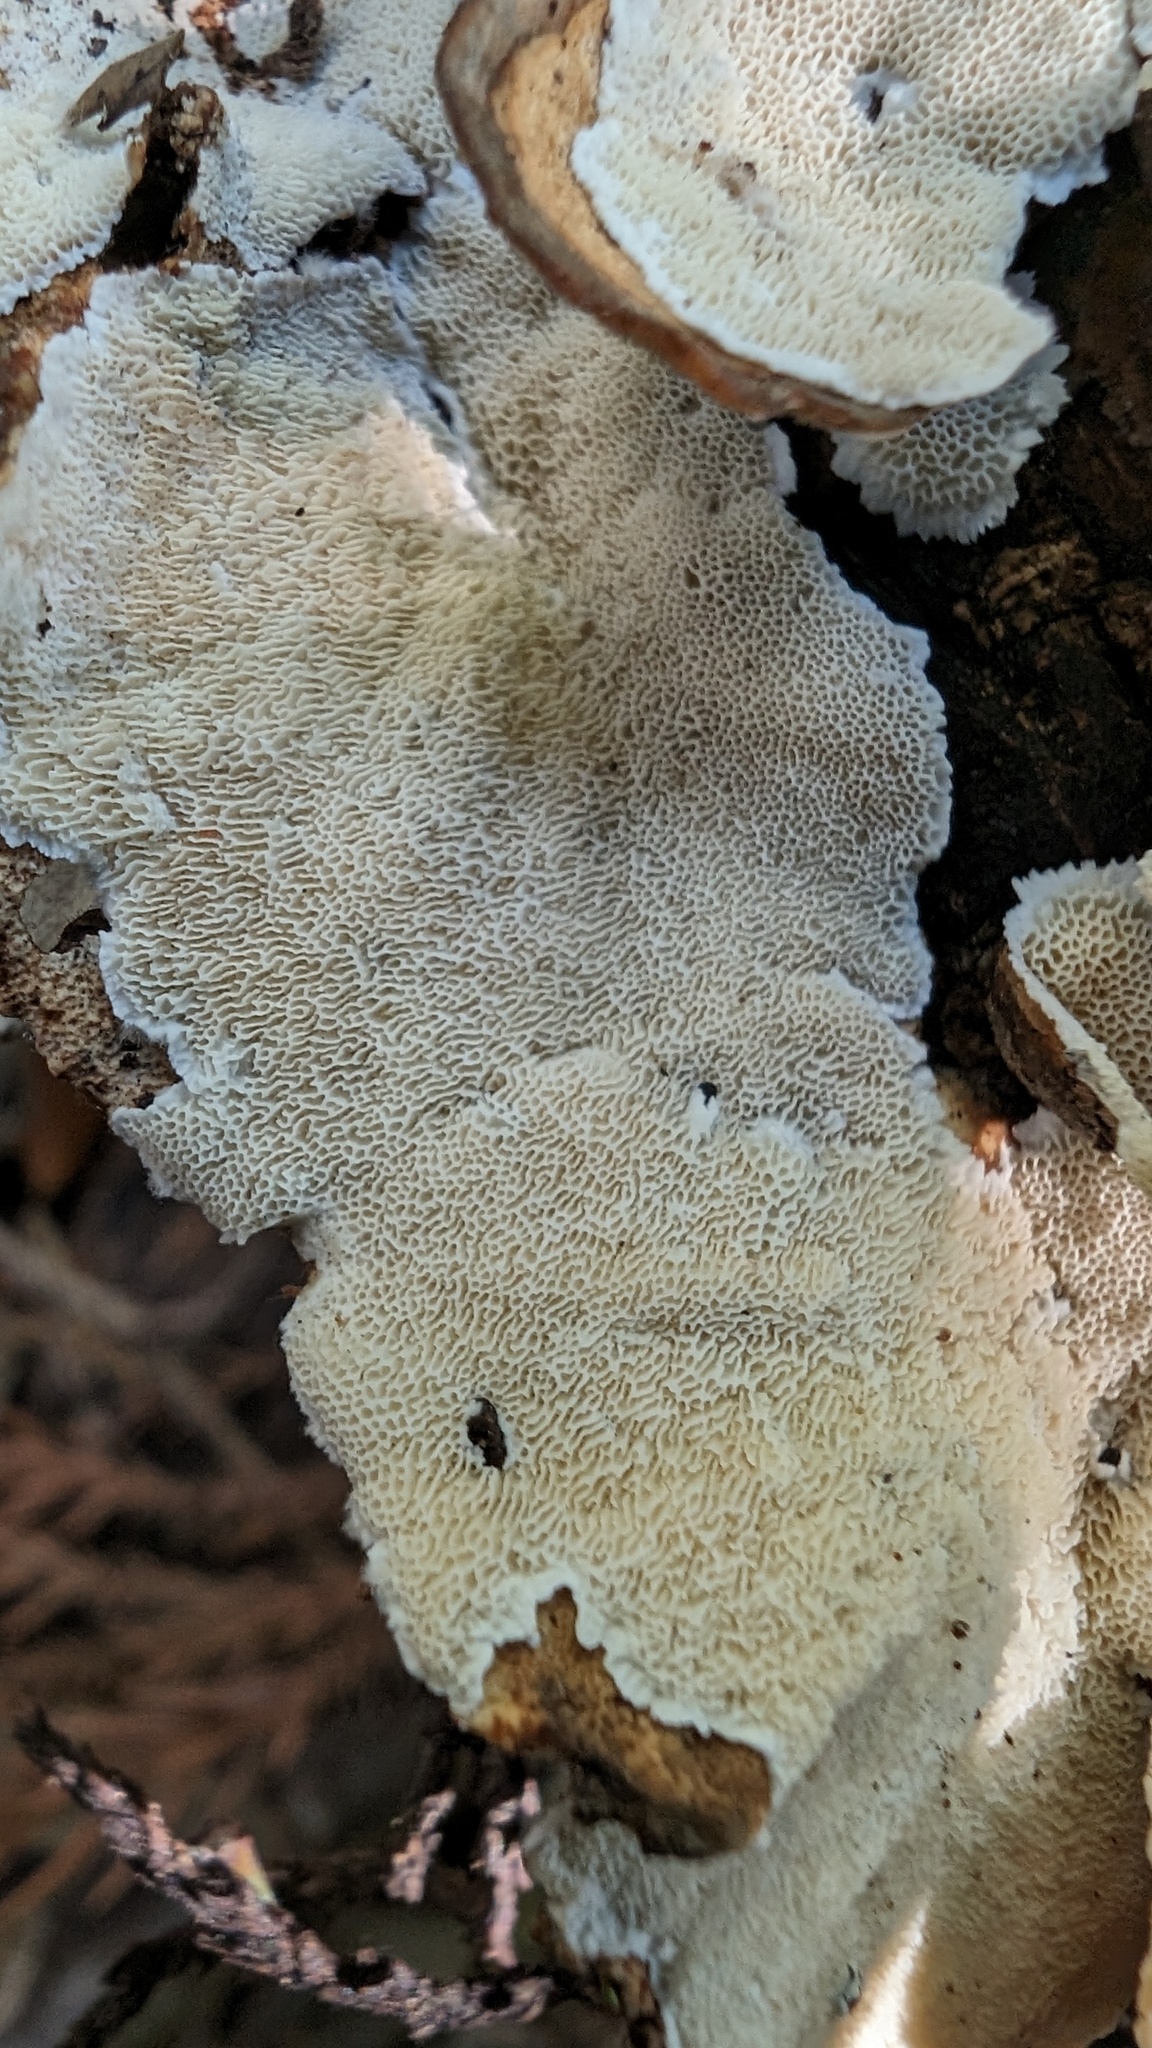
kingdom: Fungi
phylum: Basidiomycota
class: Agaricomycetes
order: Polyporales
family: Polyporaceae
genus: Trametes
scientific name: Trametes versicolor
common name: Turkeytail
